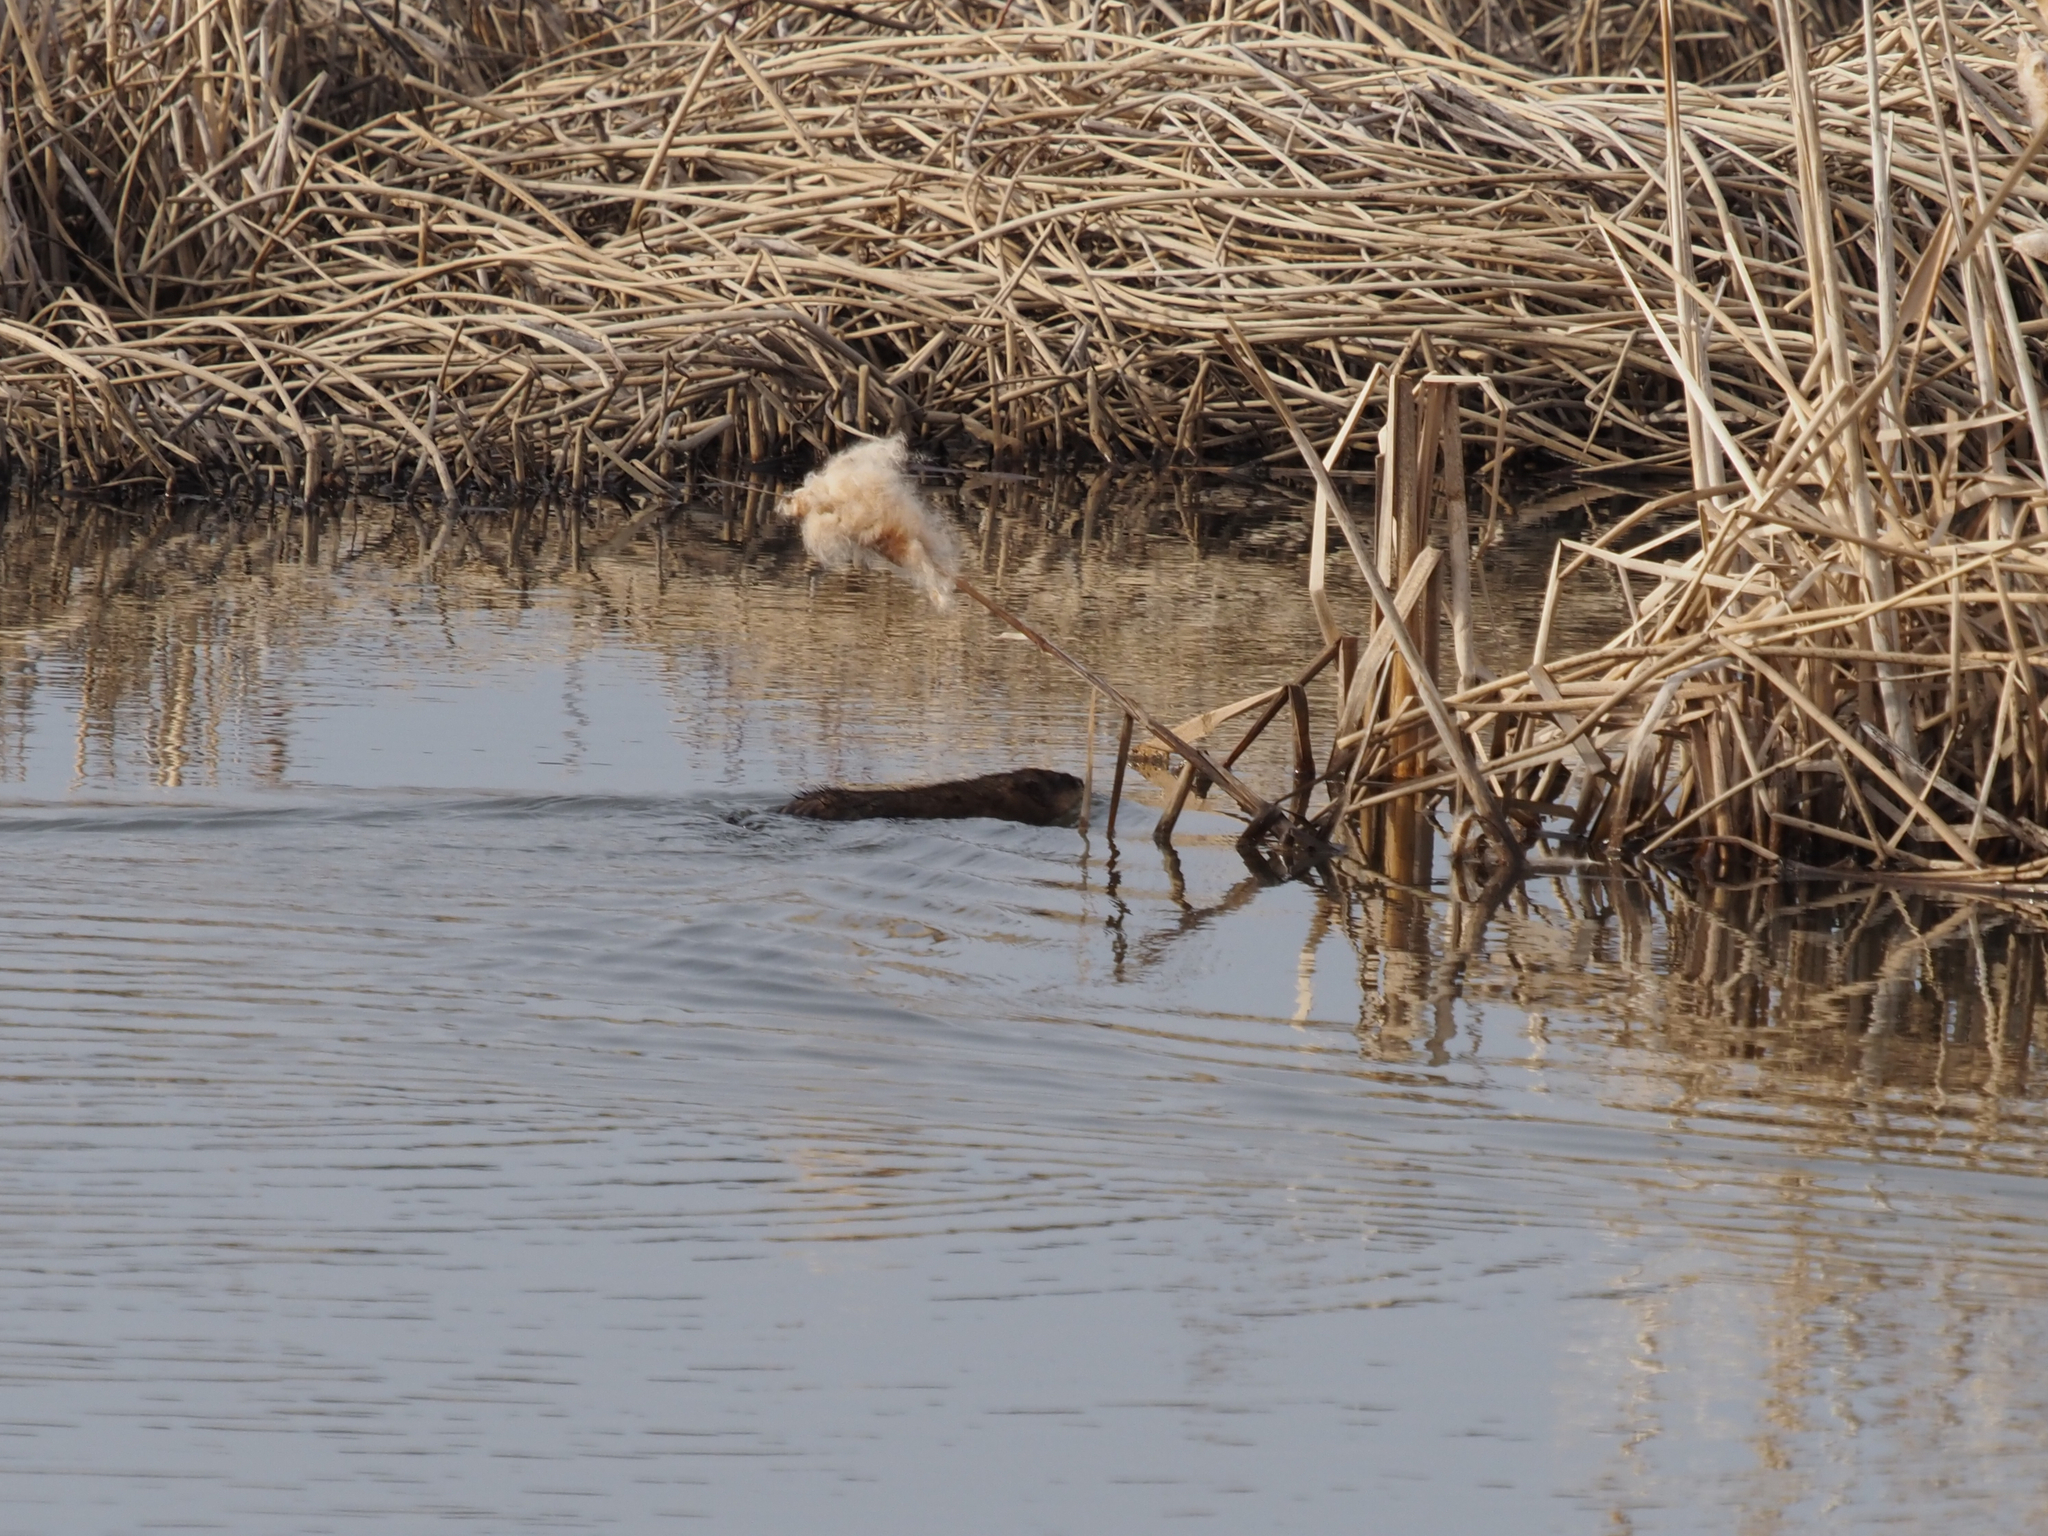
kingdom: Animalia
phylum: Chordata
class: Mammalia
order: Rodentia
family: Cricetidae
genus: Ondatra
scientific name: Ondatra zibethicus
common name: Muskrat
